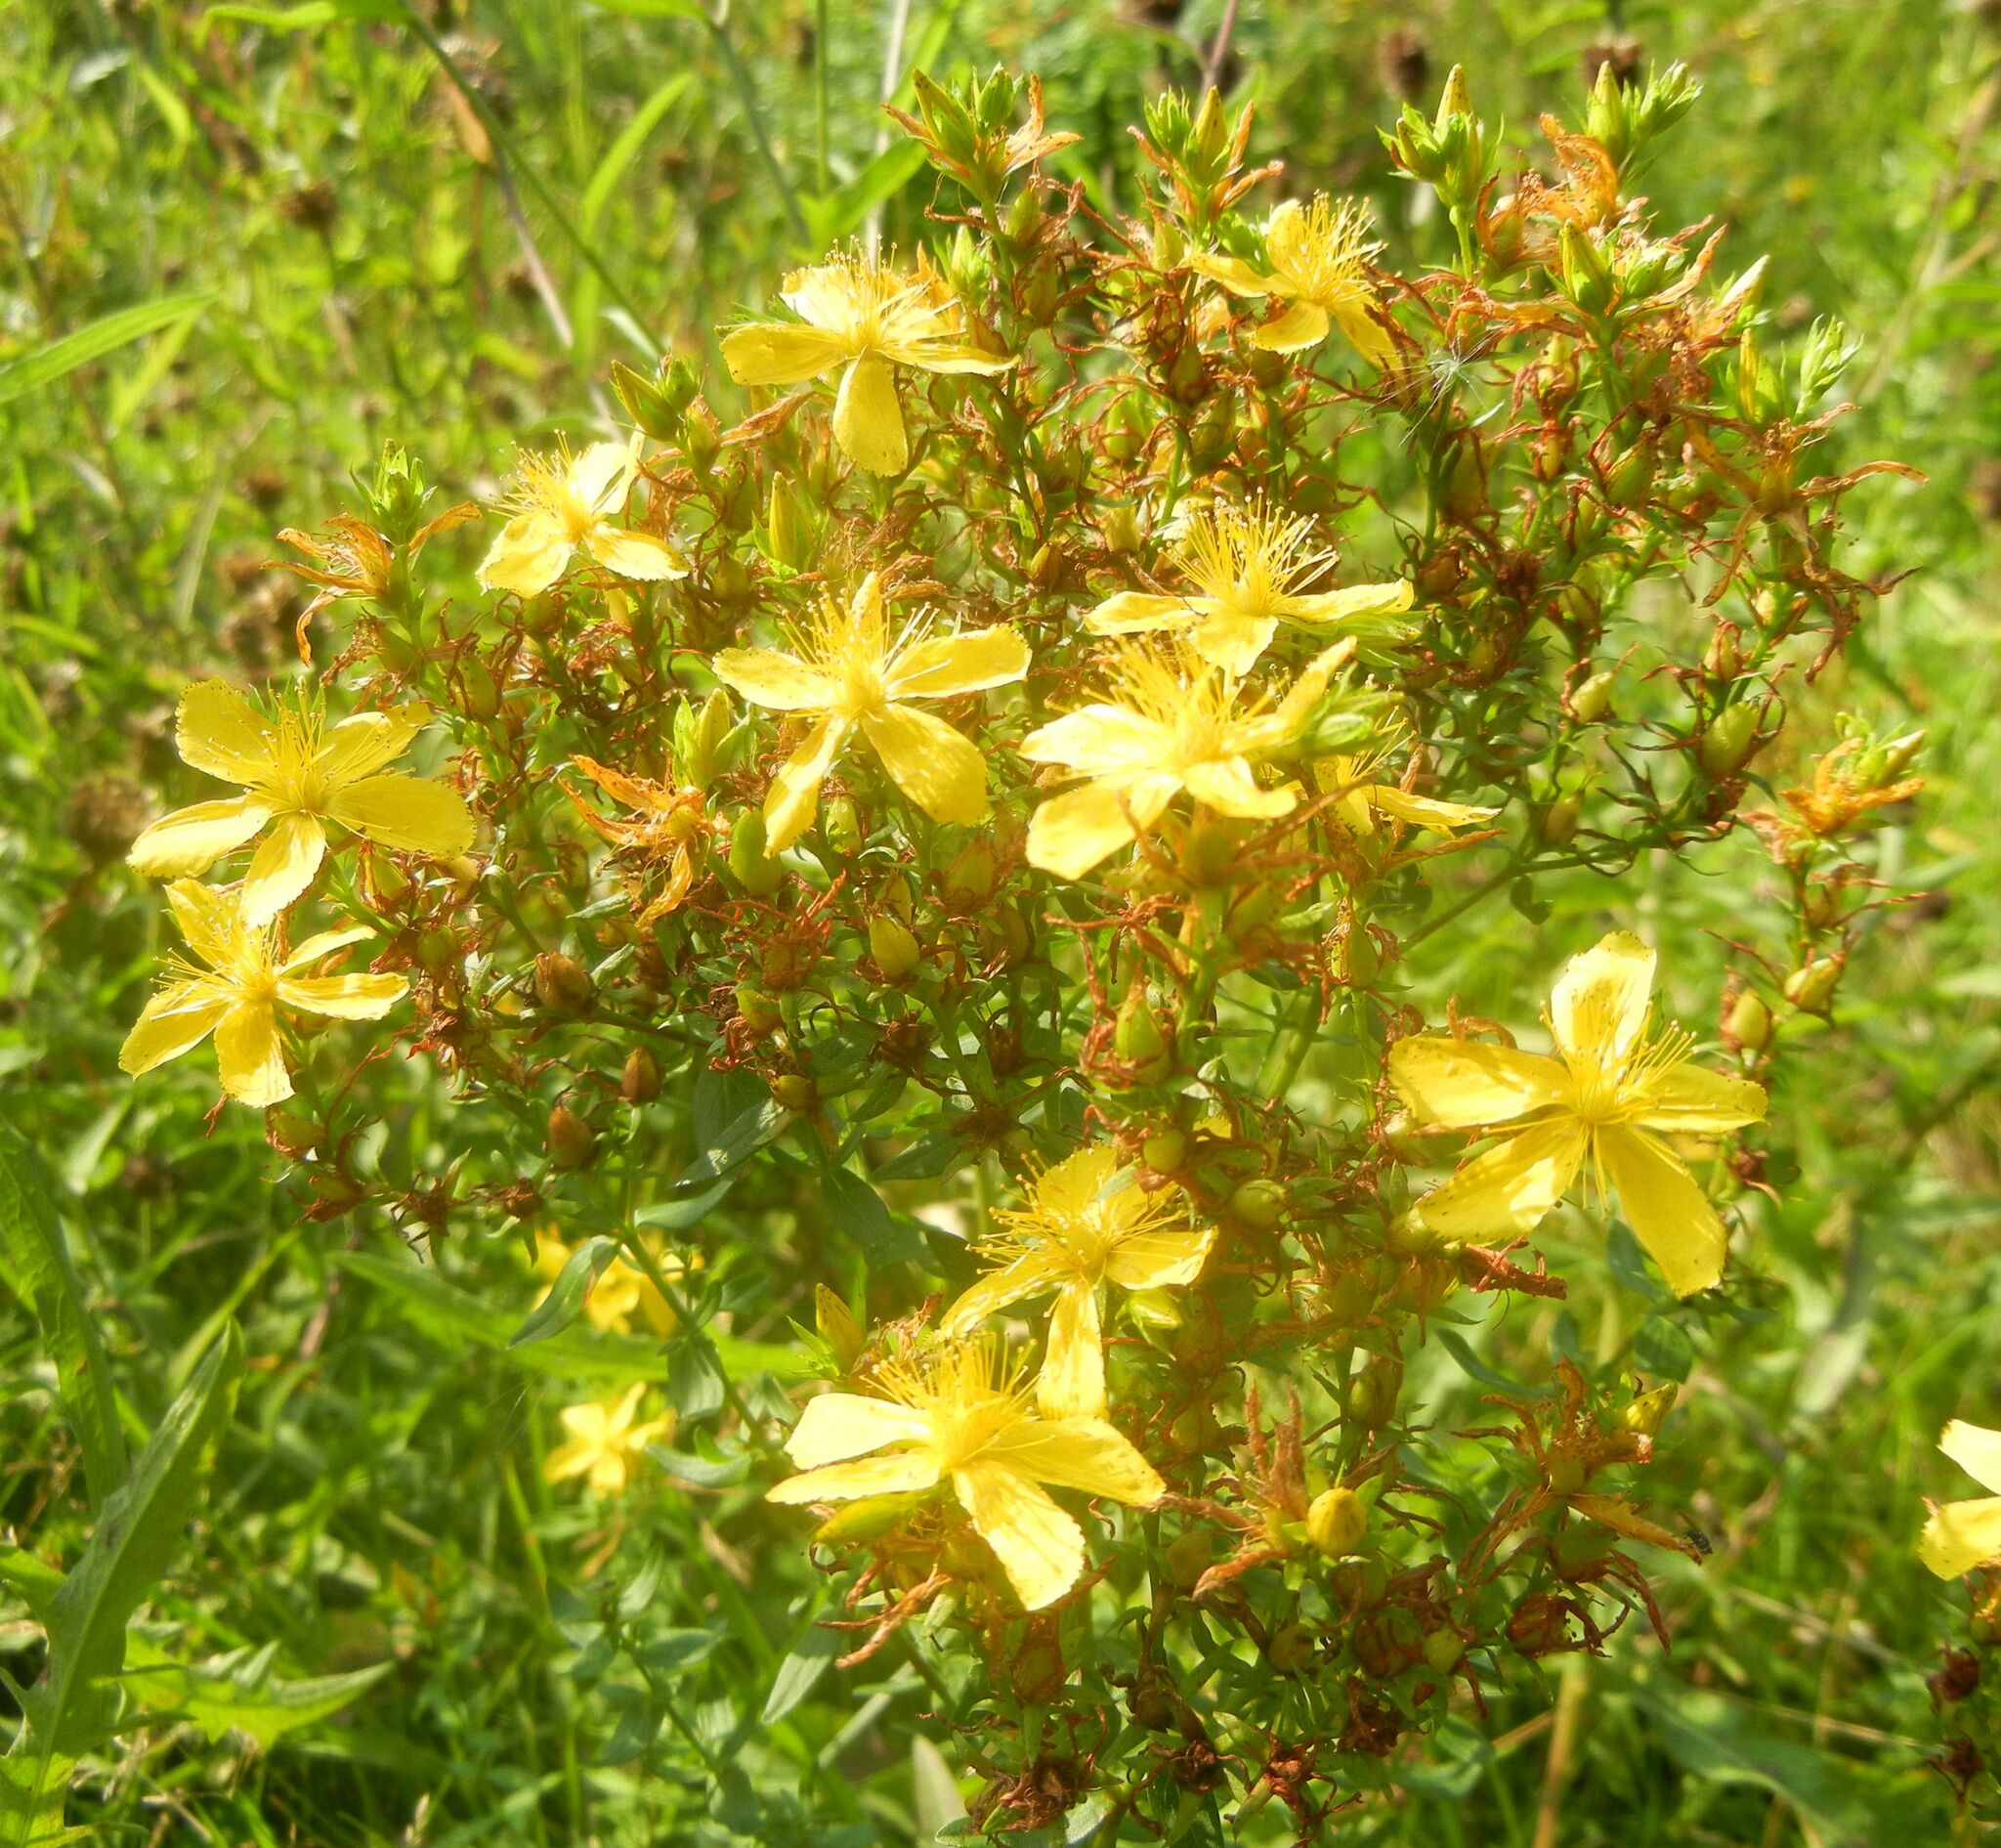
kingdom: Plantae
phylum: Tracheophyta
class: Magnoliopsida
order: Malpighiales
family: Hypericaceae
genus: Hypericum
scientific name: Hypericum perforatum
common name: Common st. johnswort
